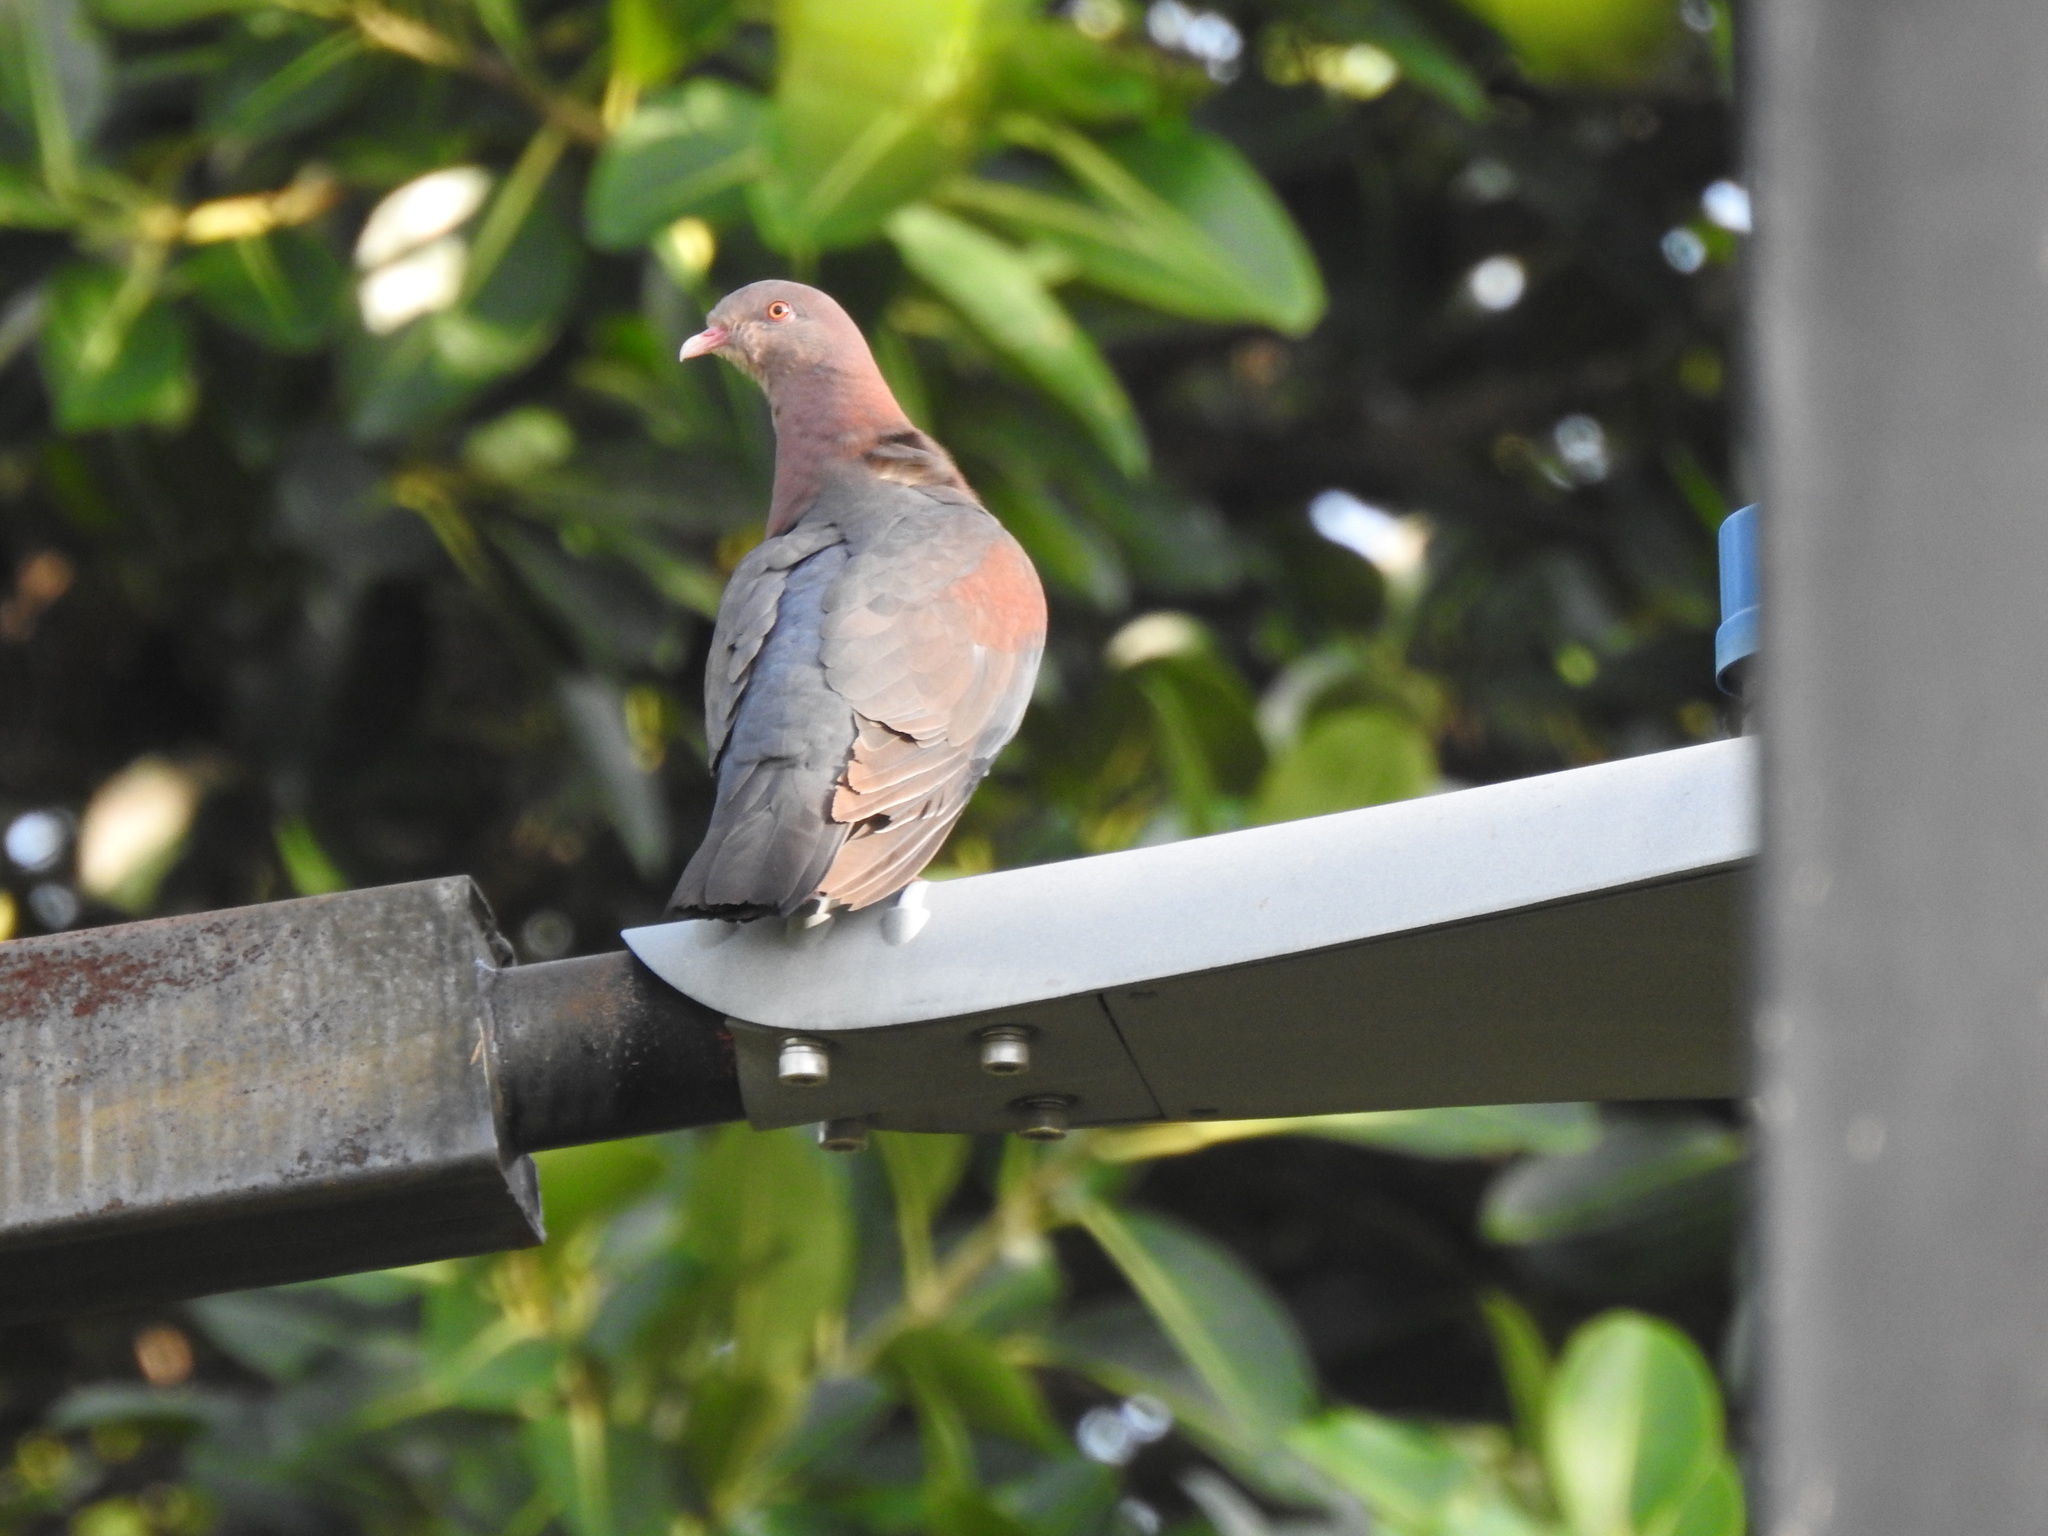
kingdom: Animalia
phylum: Chordata
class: Aves
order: Columbiformes
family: Columbidae
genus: Patagioenas
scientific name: Patagioenas flavirostris
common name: Red-billed pigeon
